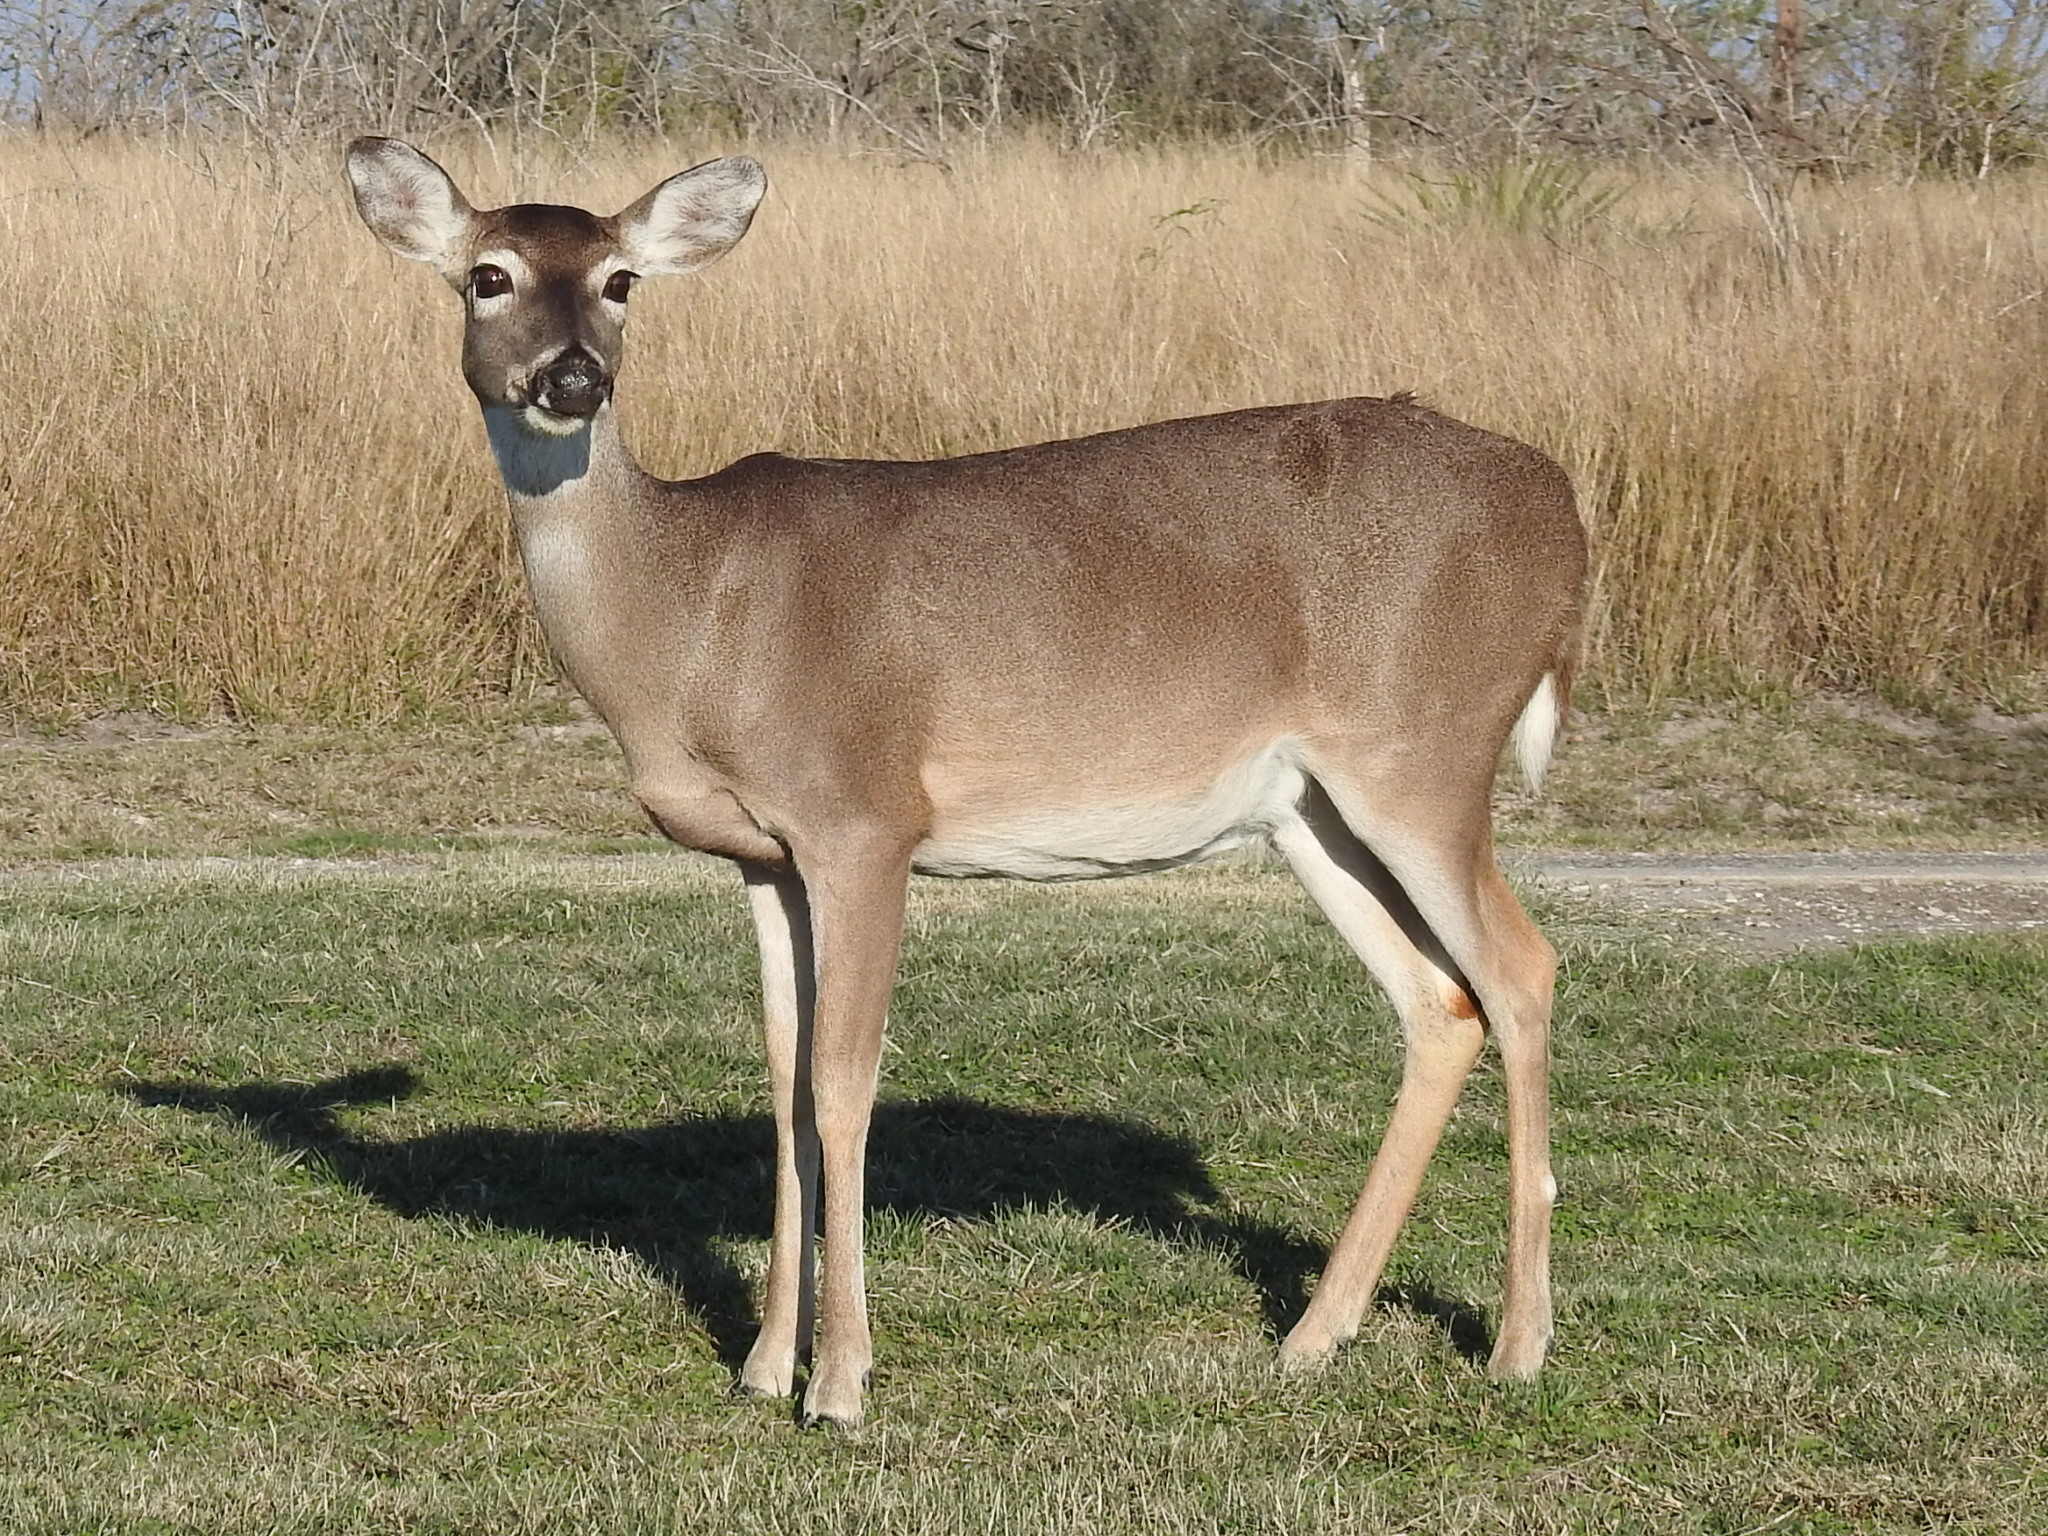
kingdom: Animalia
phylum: Chordata
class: Mammalia
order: Artiodactyla
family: Cervidae
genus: Odocoileus
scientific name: Odocoileus virginianus
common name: White-tailed deer
